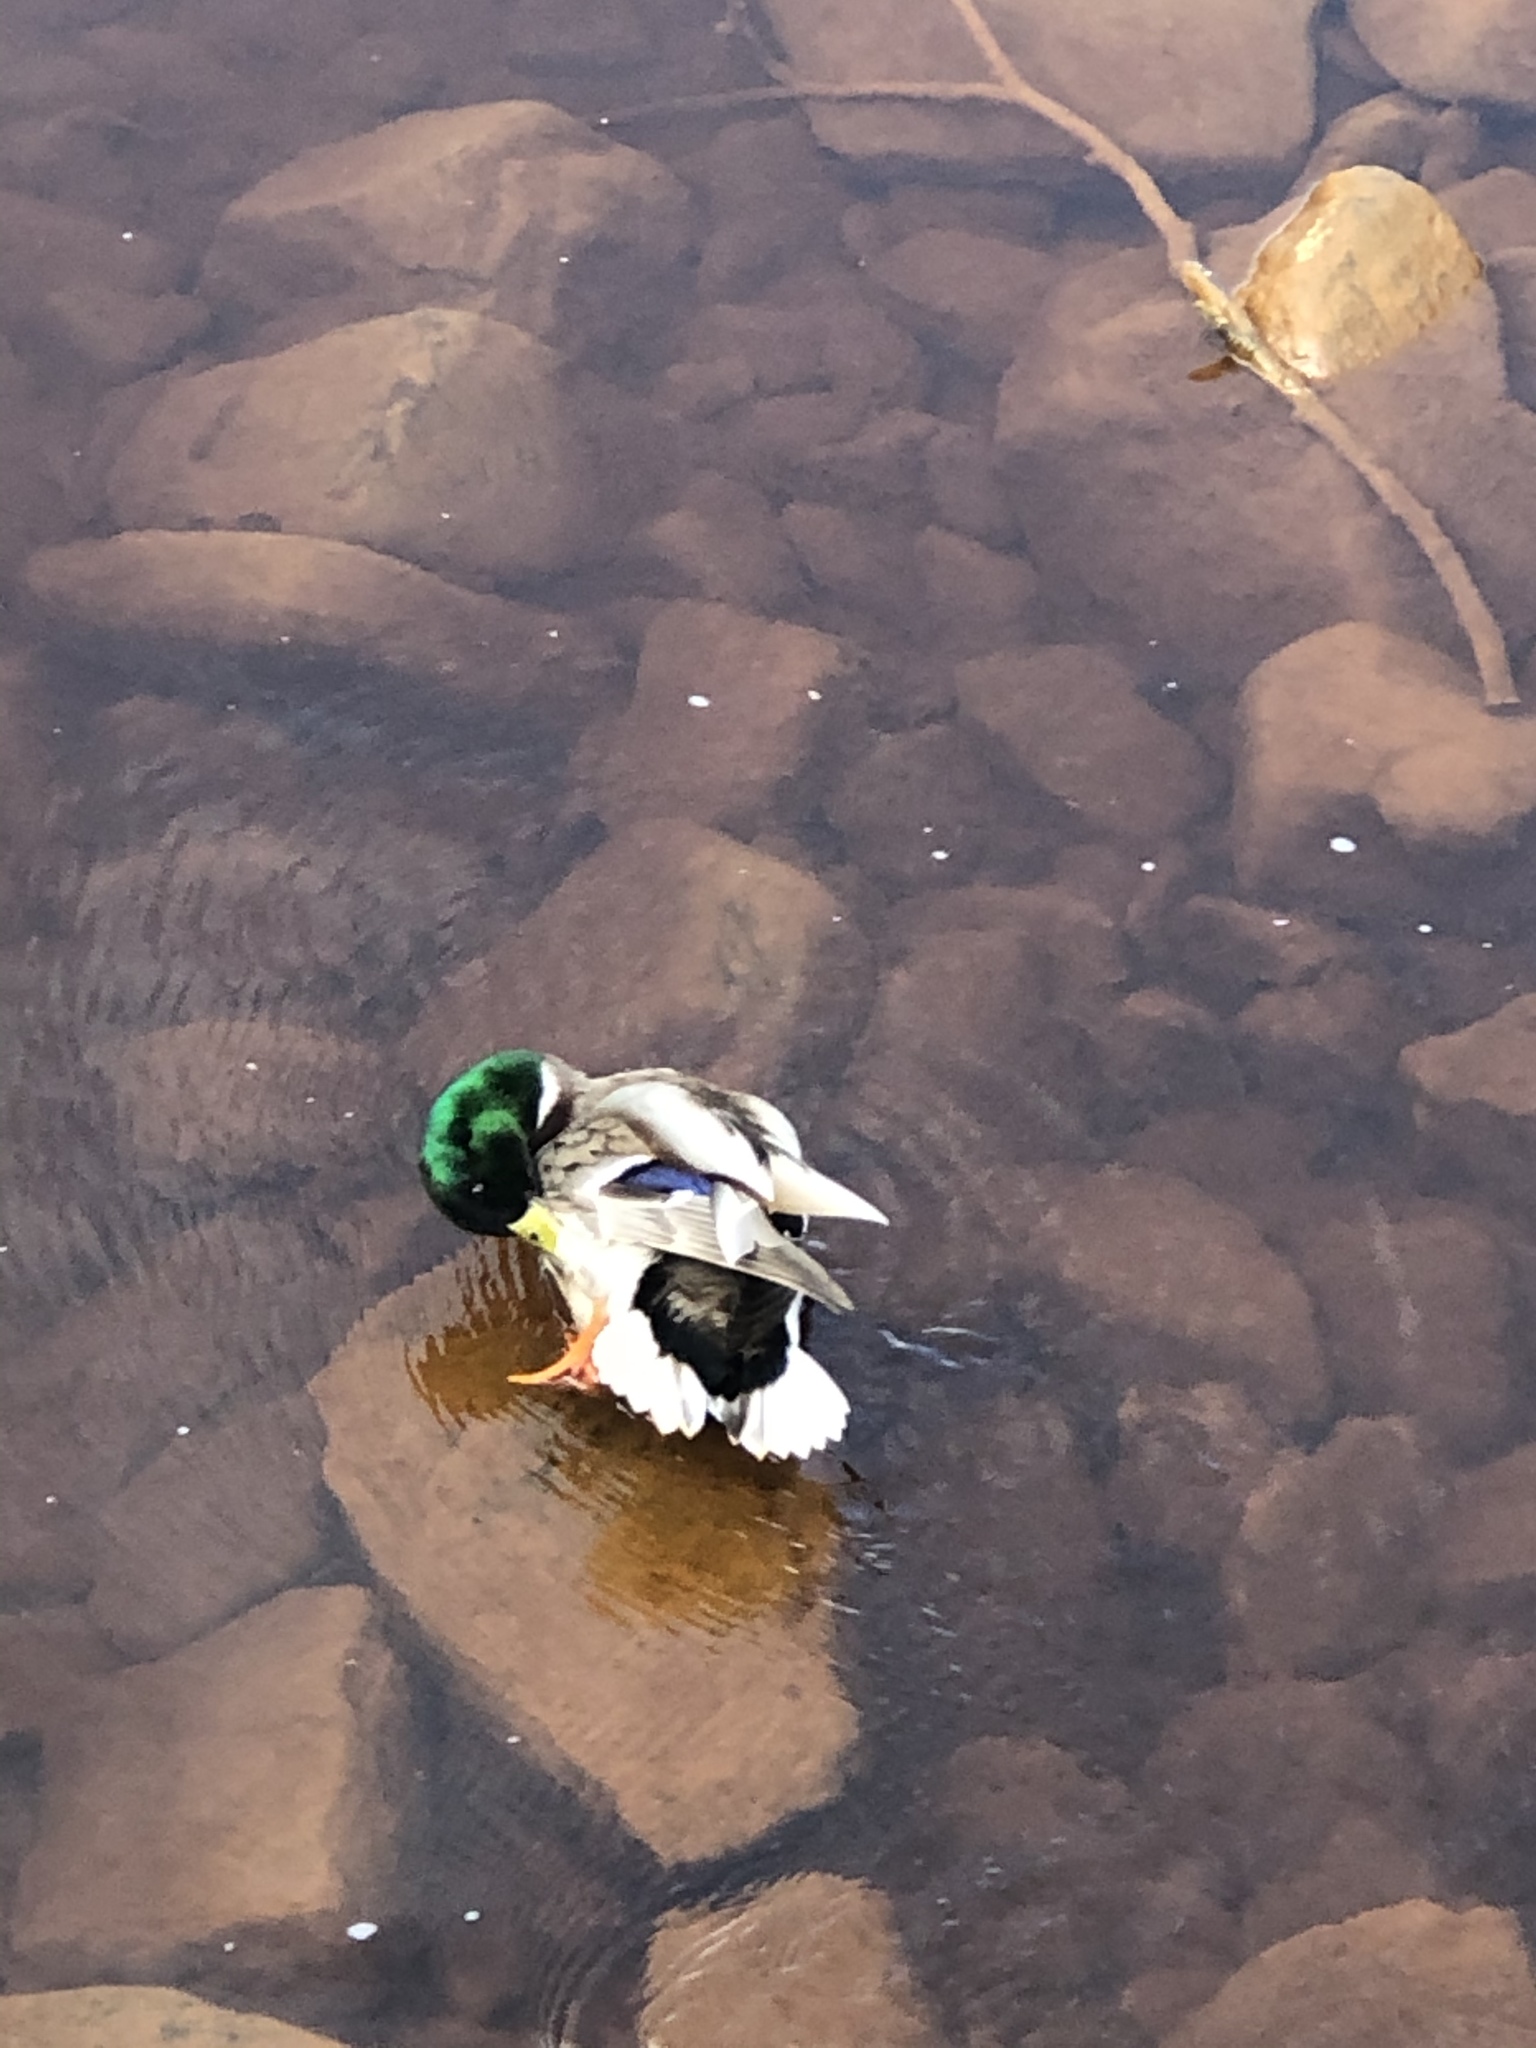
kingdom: Animalia
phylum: Chordata
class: Aves
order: Anseriformes
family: Anatidae
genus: Anas
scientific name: Anas platyrhynchos
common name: Mallard
